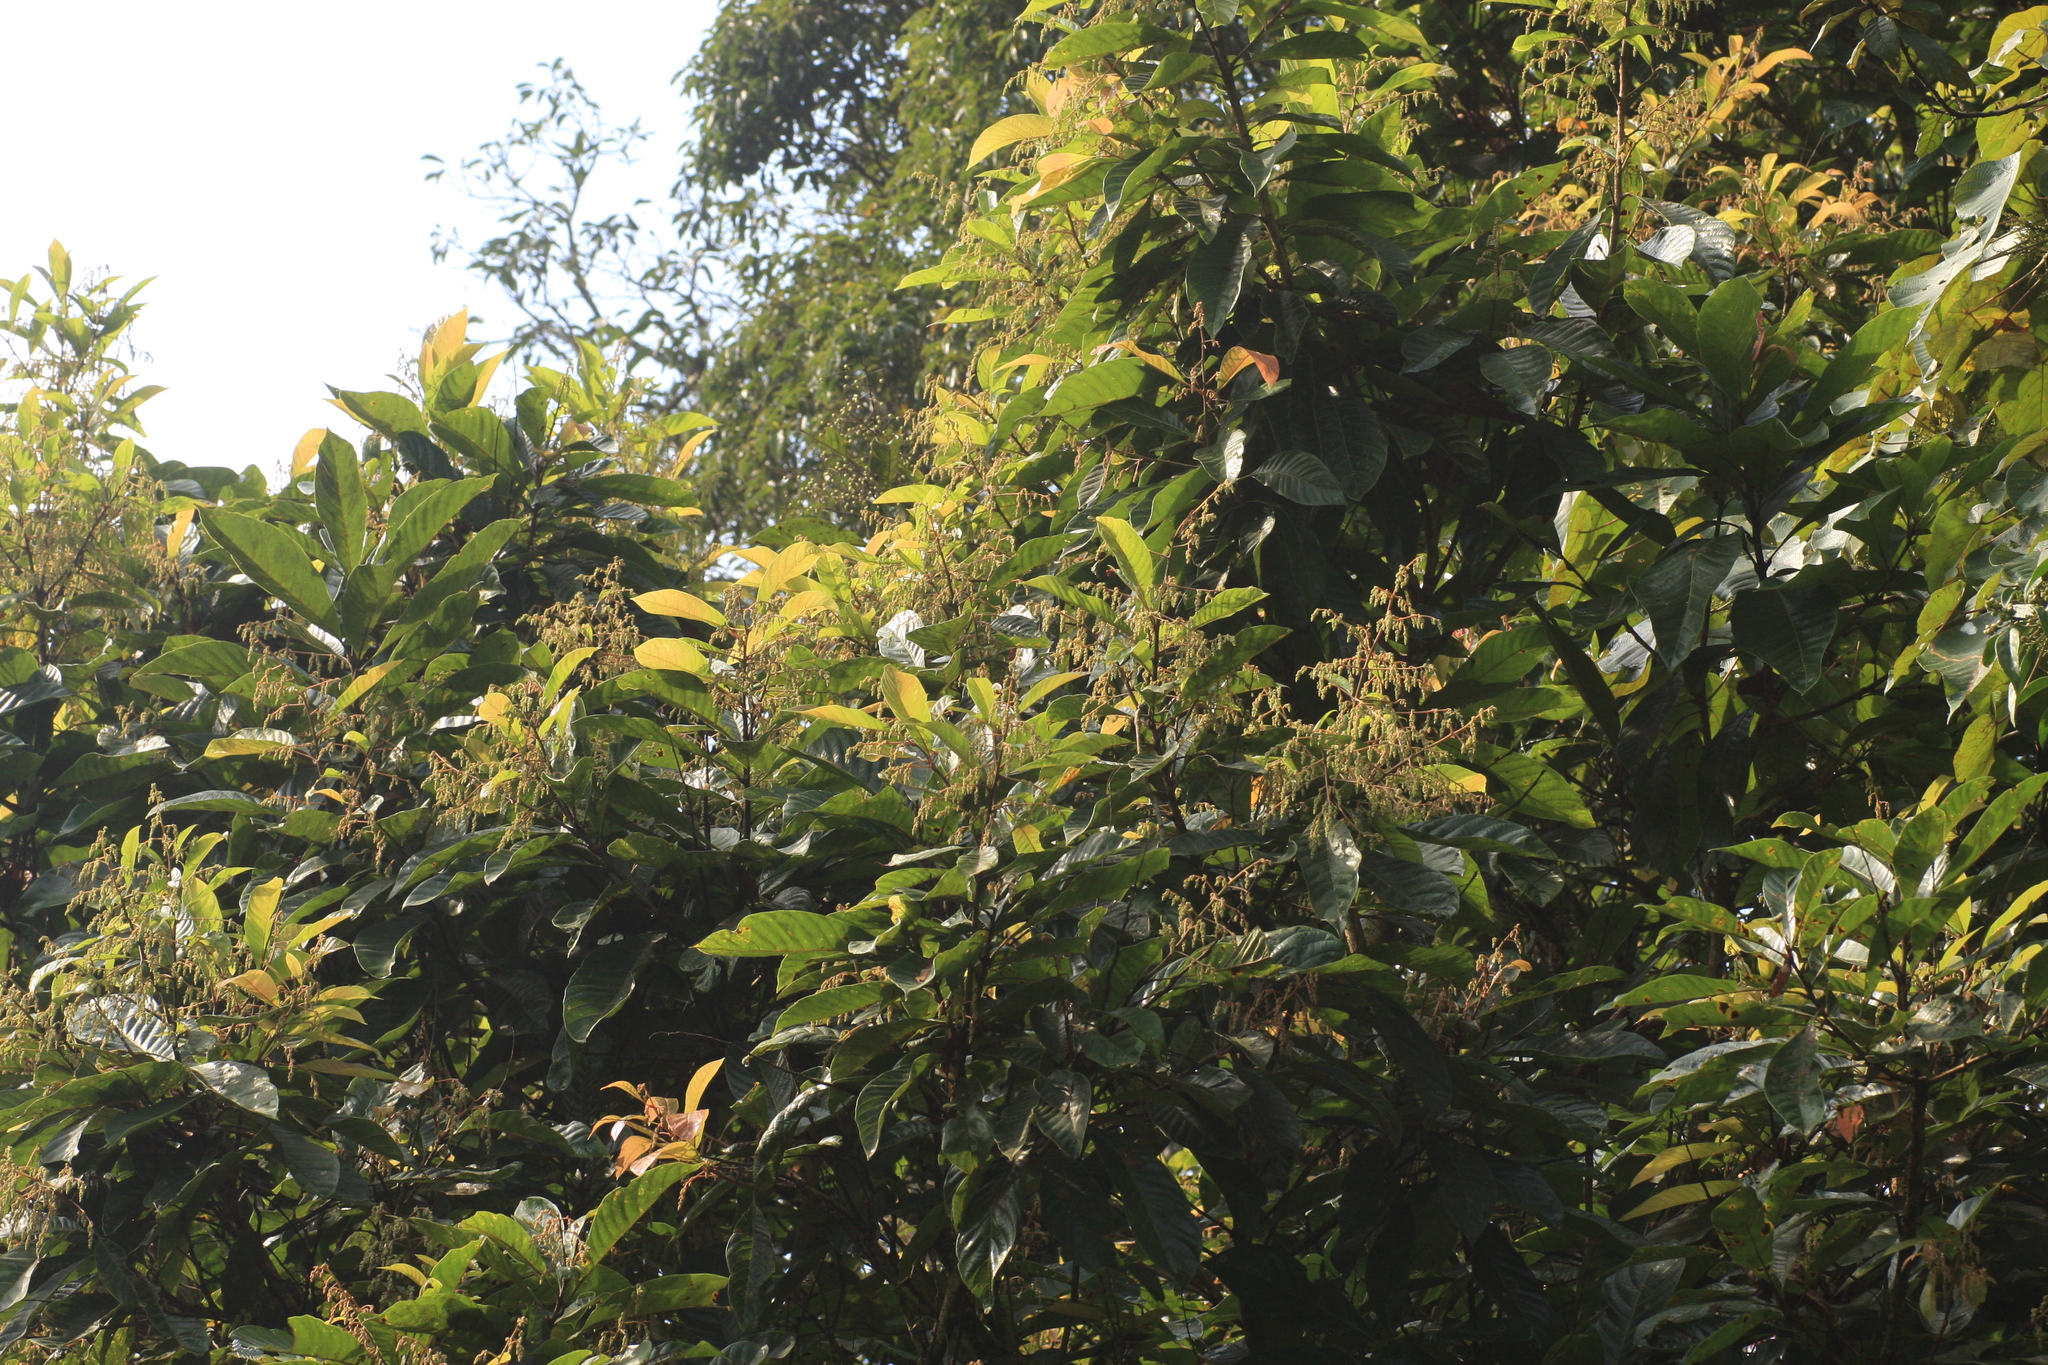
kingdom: Plantae
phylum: Tracheophyta
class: Magnoliopsida
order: Proteales
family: Sabiaceae
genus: Meliosma
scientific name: Meliosma simplicifolia
